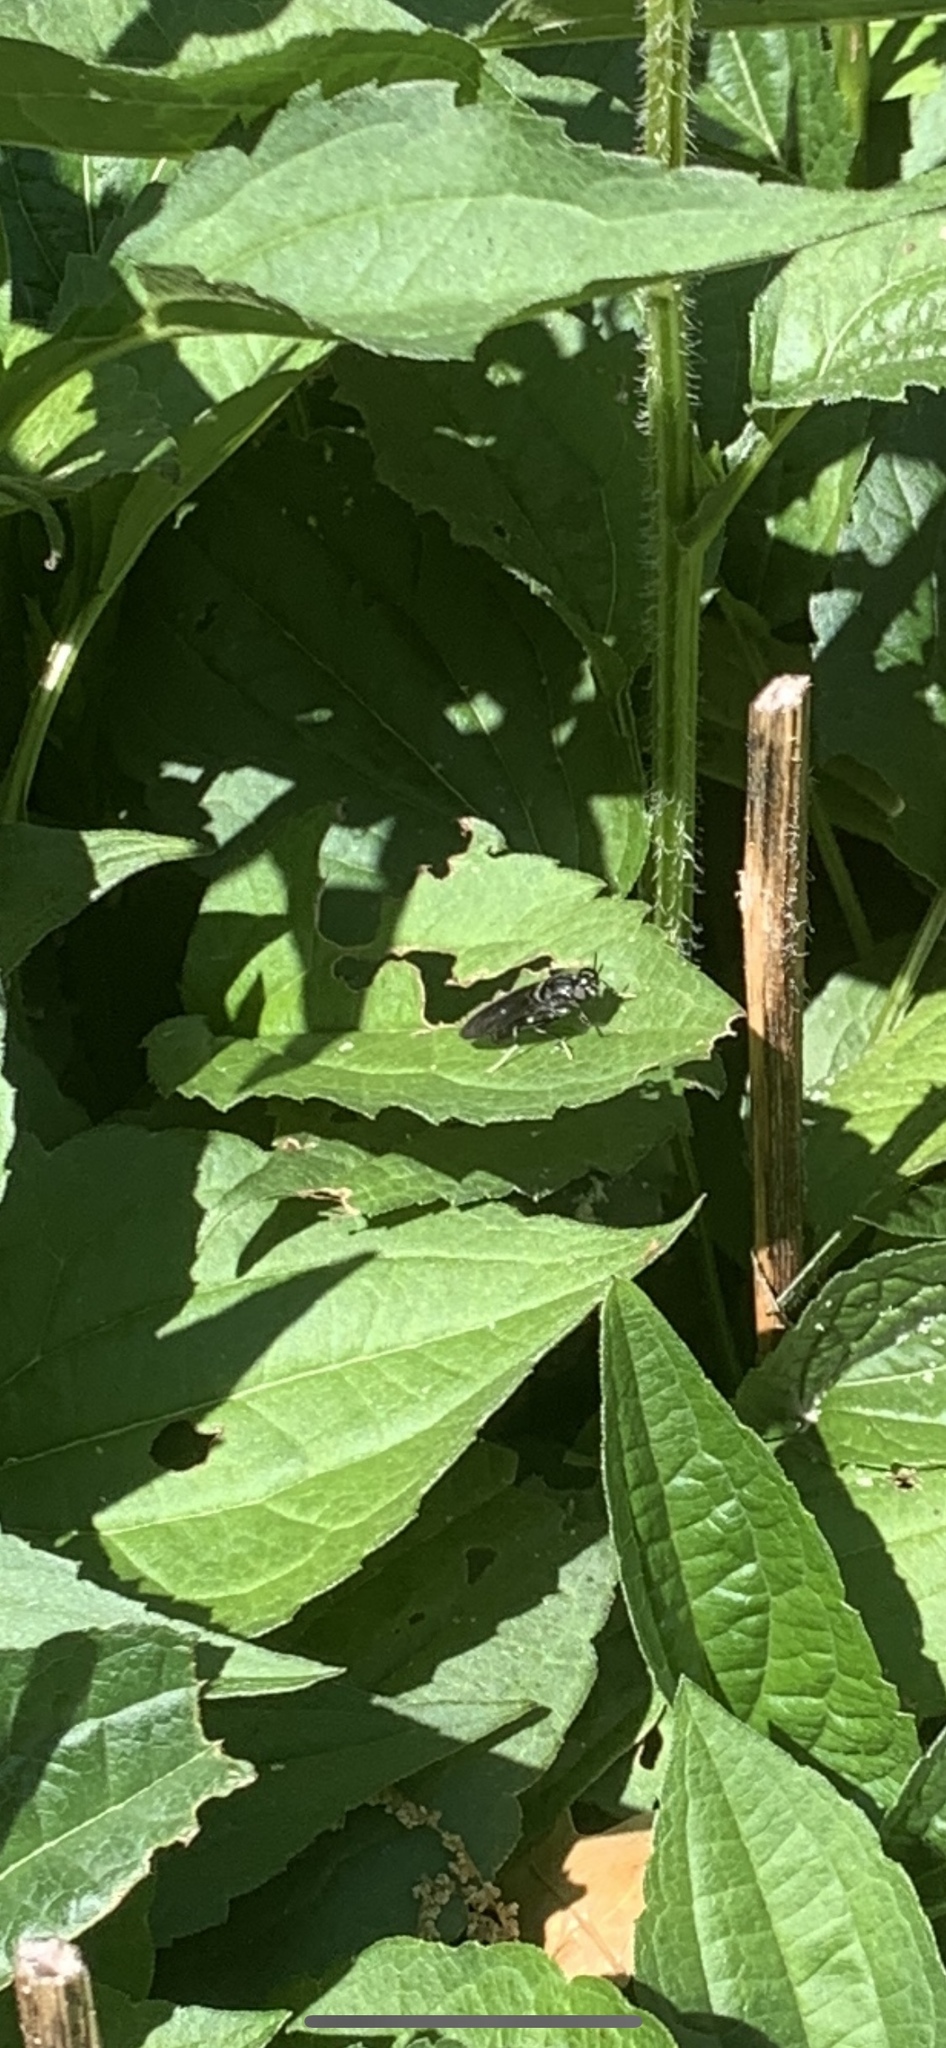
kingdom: Animalia
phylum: Arthropoda
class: Insecta
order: Diptera
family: Stratiomyidae
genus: Hermetia
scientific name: Hermetia illucens
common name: Black soldier fly
